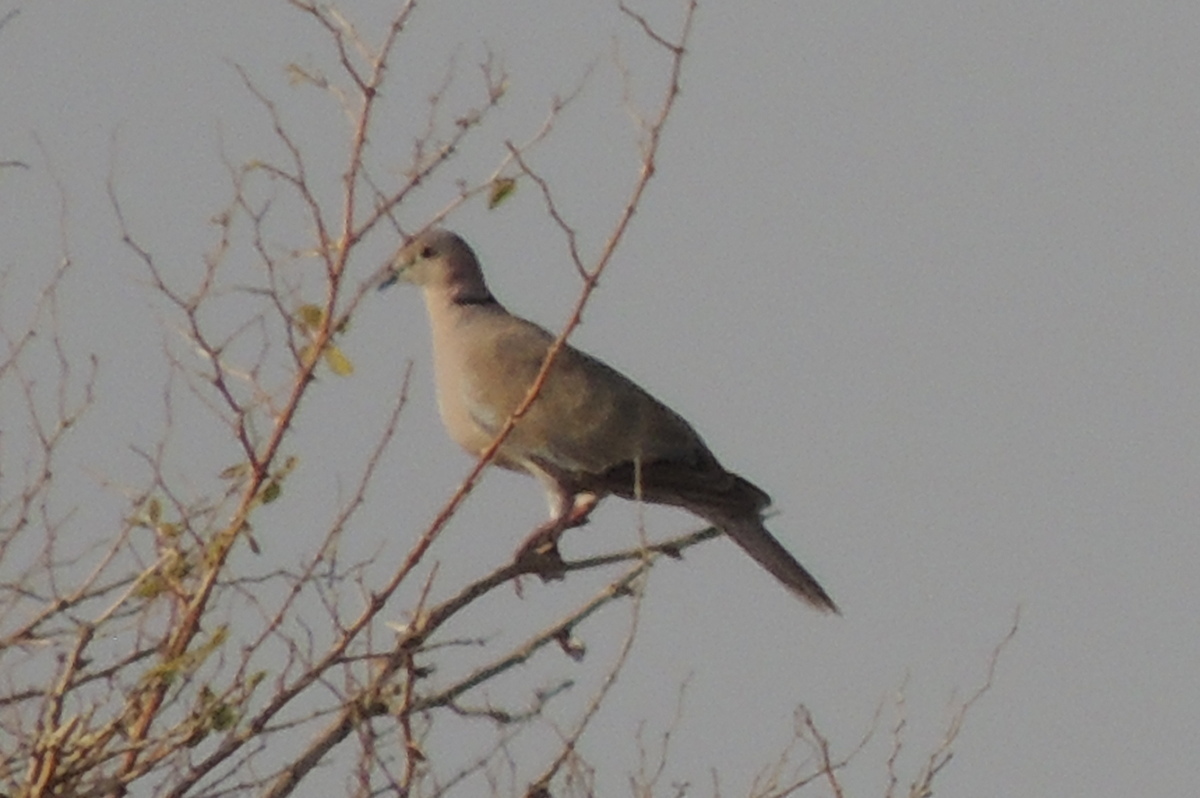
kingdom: Animalia
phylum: Chordata
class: Aves
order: Columbiformes
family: Columbidae
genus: Streptopelia
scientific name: Streptopelia decaocto
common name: Eurasian collared dove
